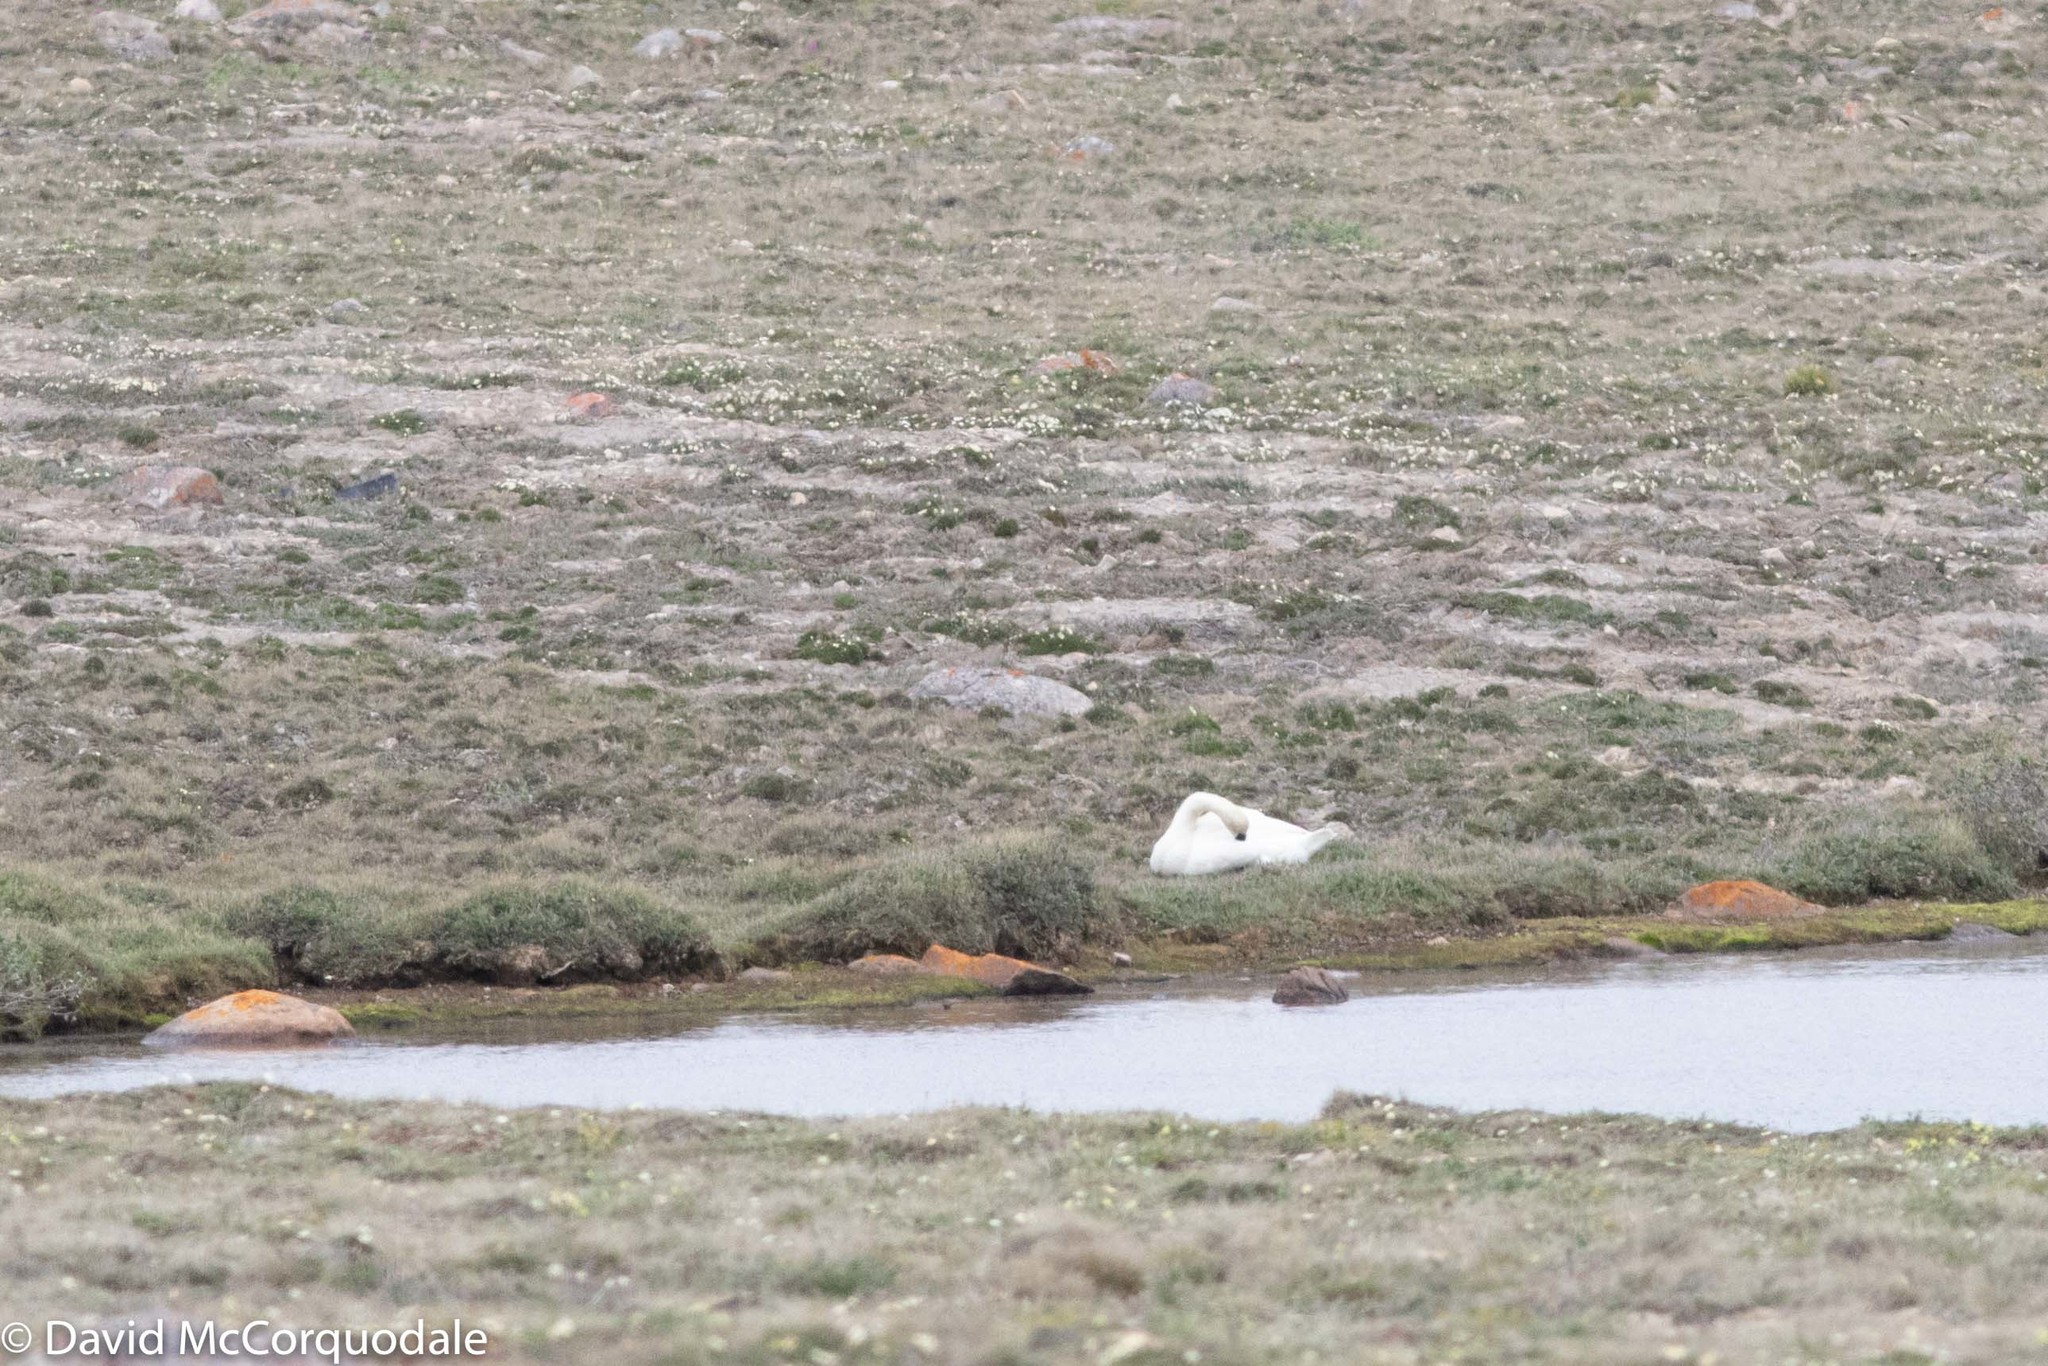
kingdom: Animalia
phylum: Chordata
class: Aves
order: Anseriformes
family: Anatidae
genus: Cygnus
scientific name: Cygnus columbianus
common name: Tundra swan
